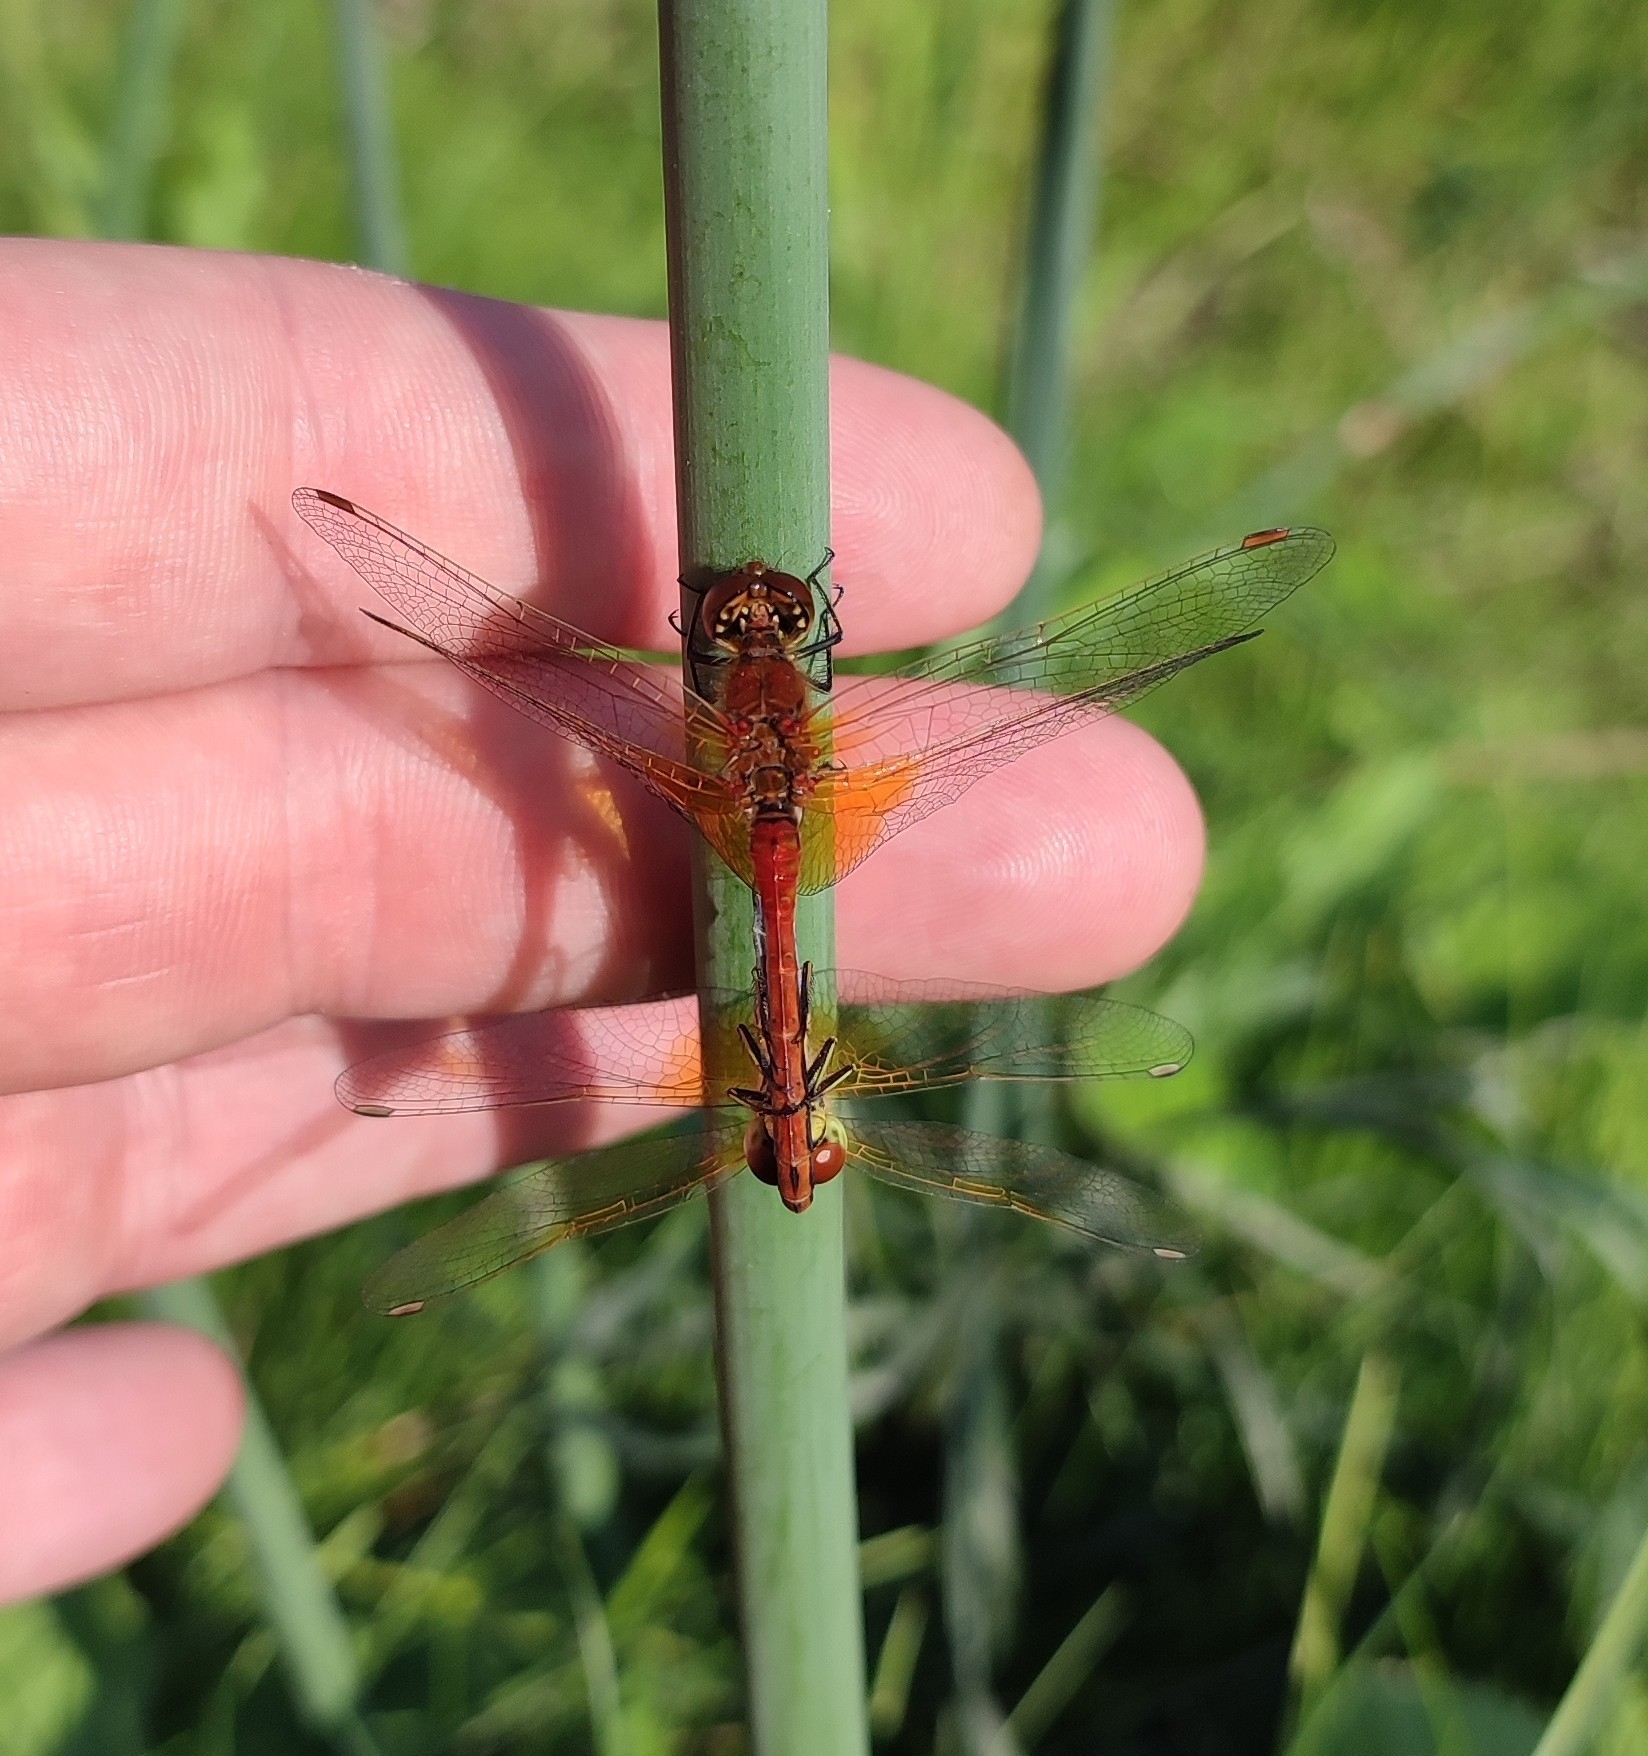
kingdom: Animalia
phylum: Arthropoda
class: Insecta
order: Odonata
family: Libellulidae
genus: Sympetrum
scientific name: Sympetrum flaveolum
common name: Yellow-winged darter
